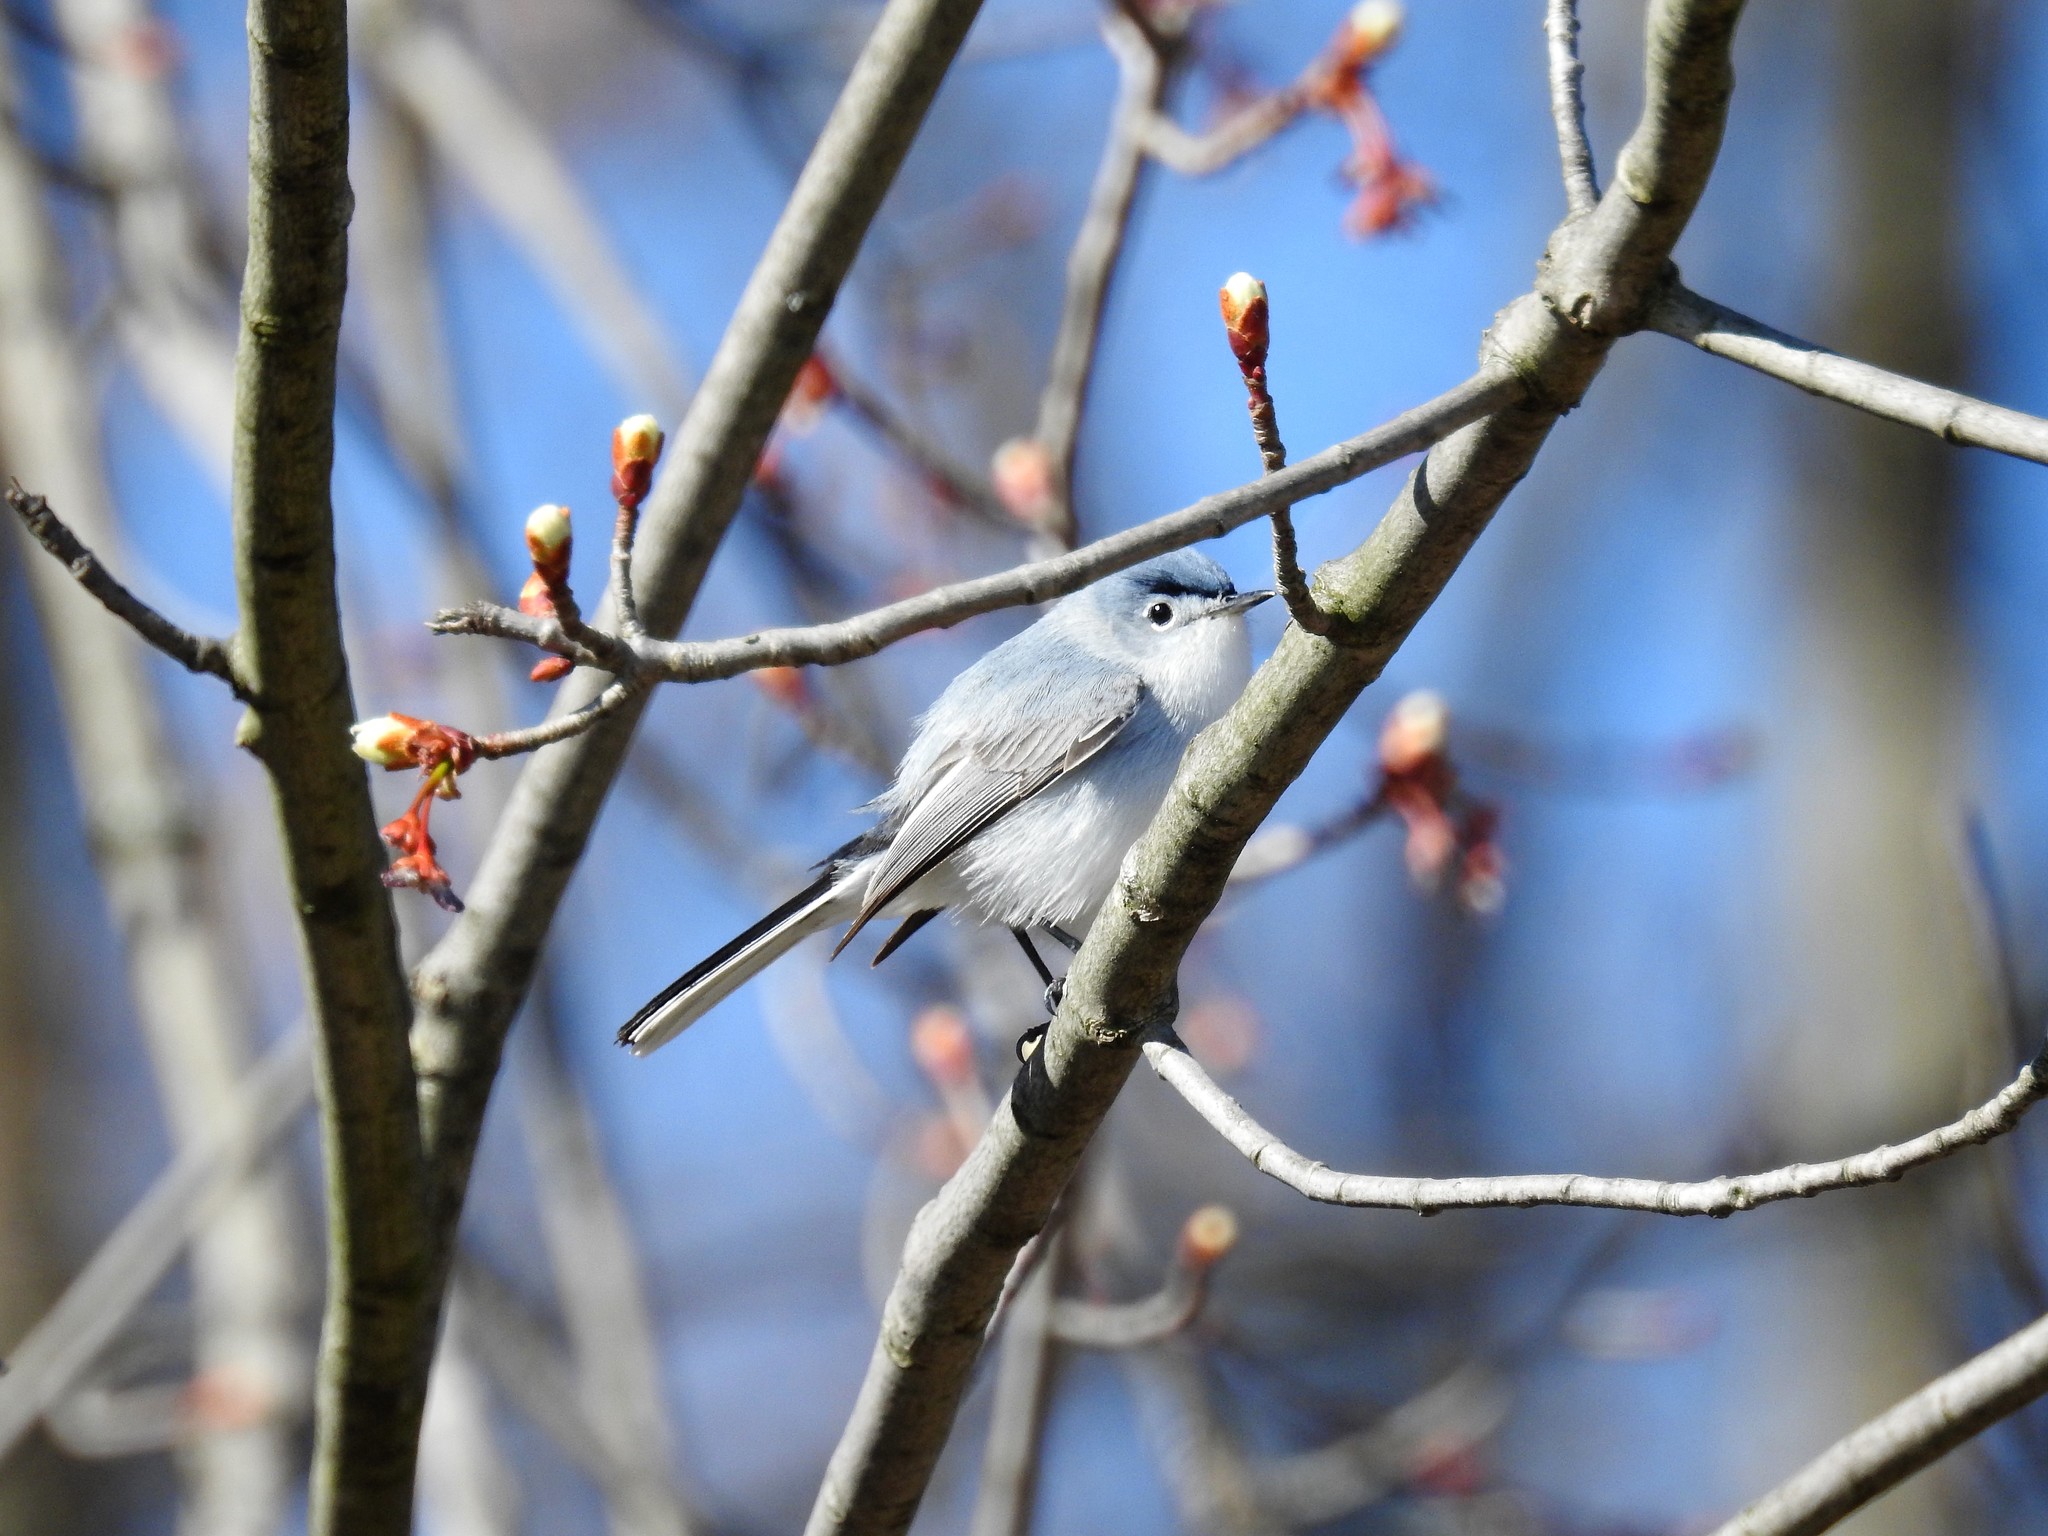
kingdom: Animalia
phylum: Chordata
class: Aves
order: Passeriformes
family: Polioptilidae
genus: Polioptila
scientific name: Polioptila caerulea
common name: Blue-gray gnatcatcher
